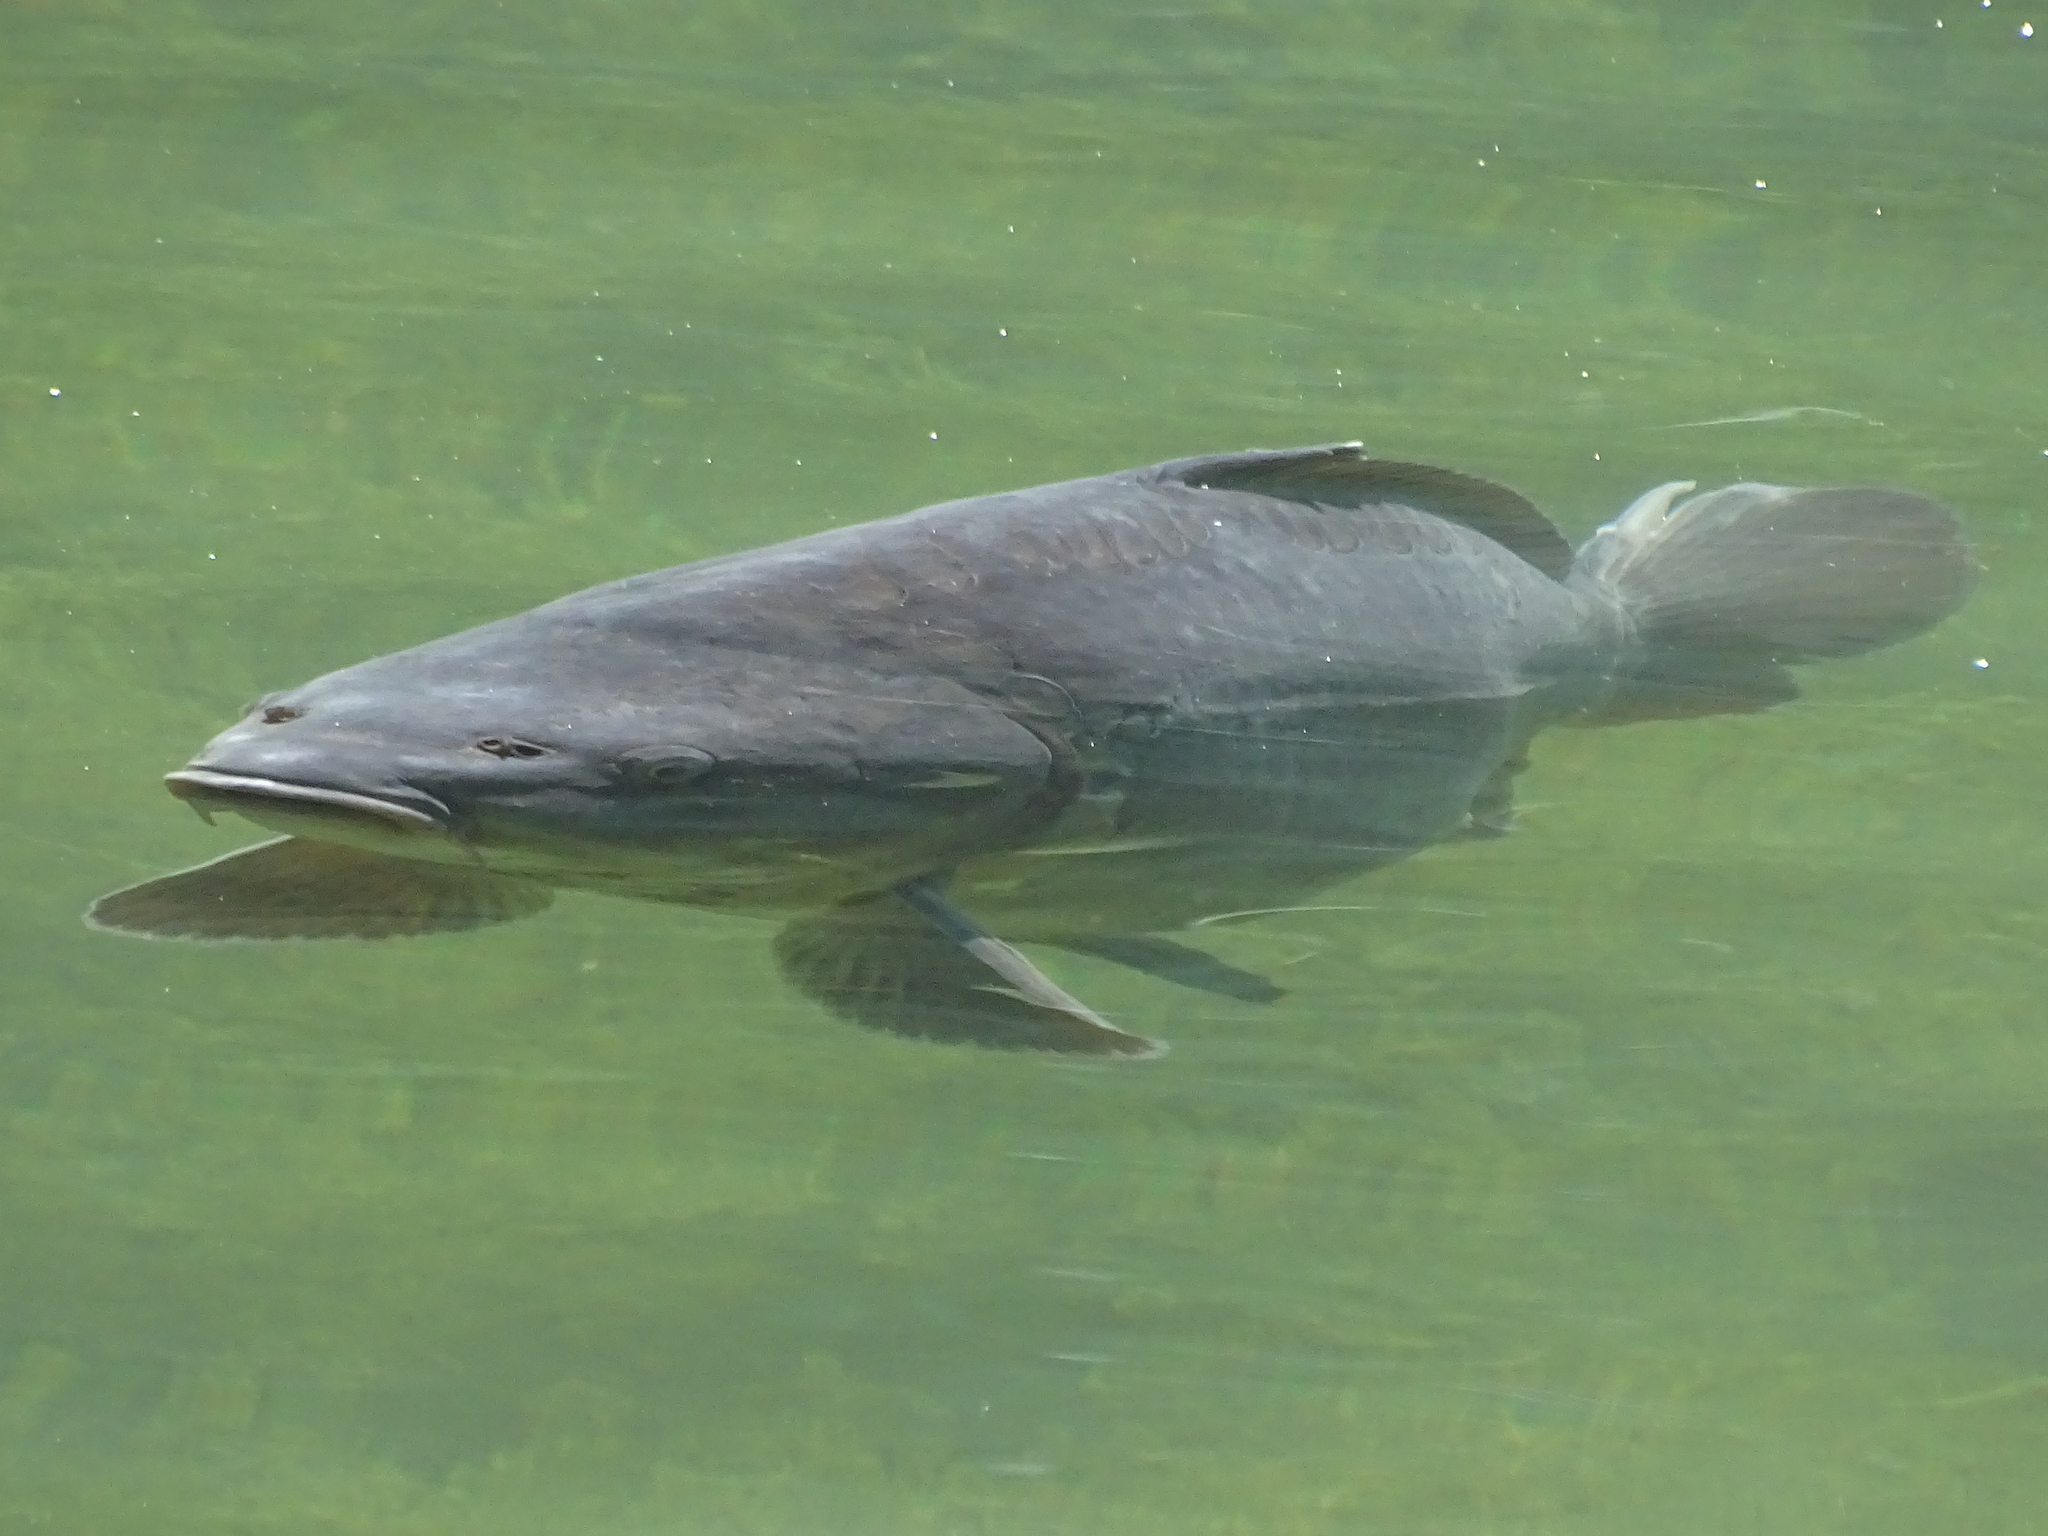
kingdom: Animalia
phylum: Chordata
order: Cypriniformes
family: Cyprinidae
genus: Cyprinus
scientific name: Cyprinus carpio
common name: Common carp
